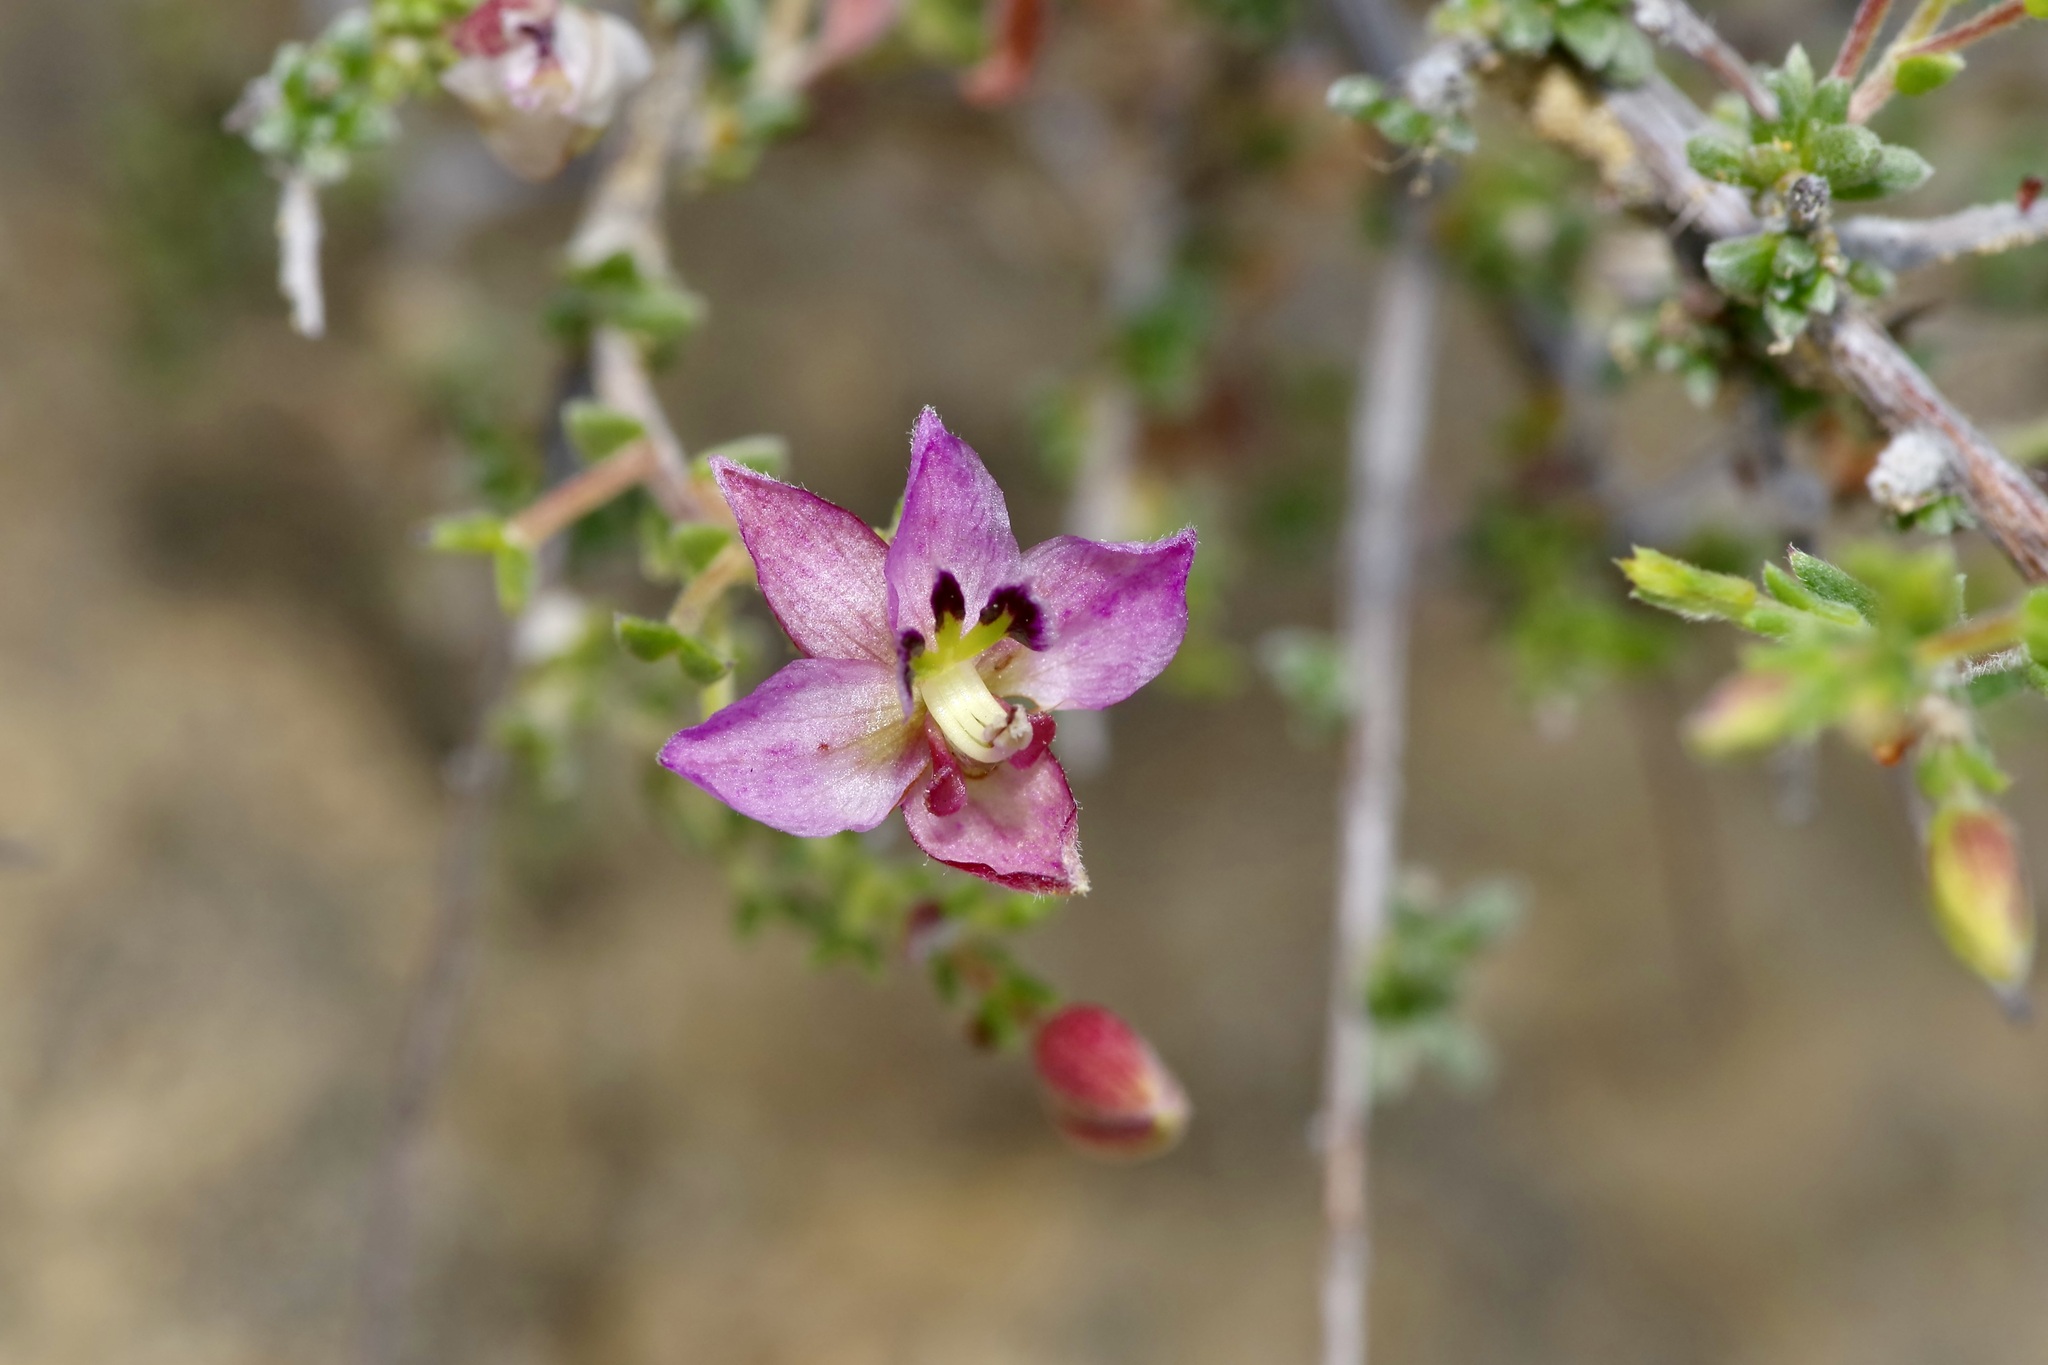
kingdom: Plantae
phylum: Tracheophyta
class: Magnoliopsida
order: Zygophyllales
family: Krameriaceae
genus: Krameria
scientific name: Krameria ramosissima
